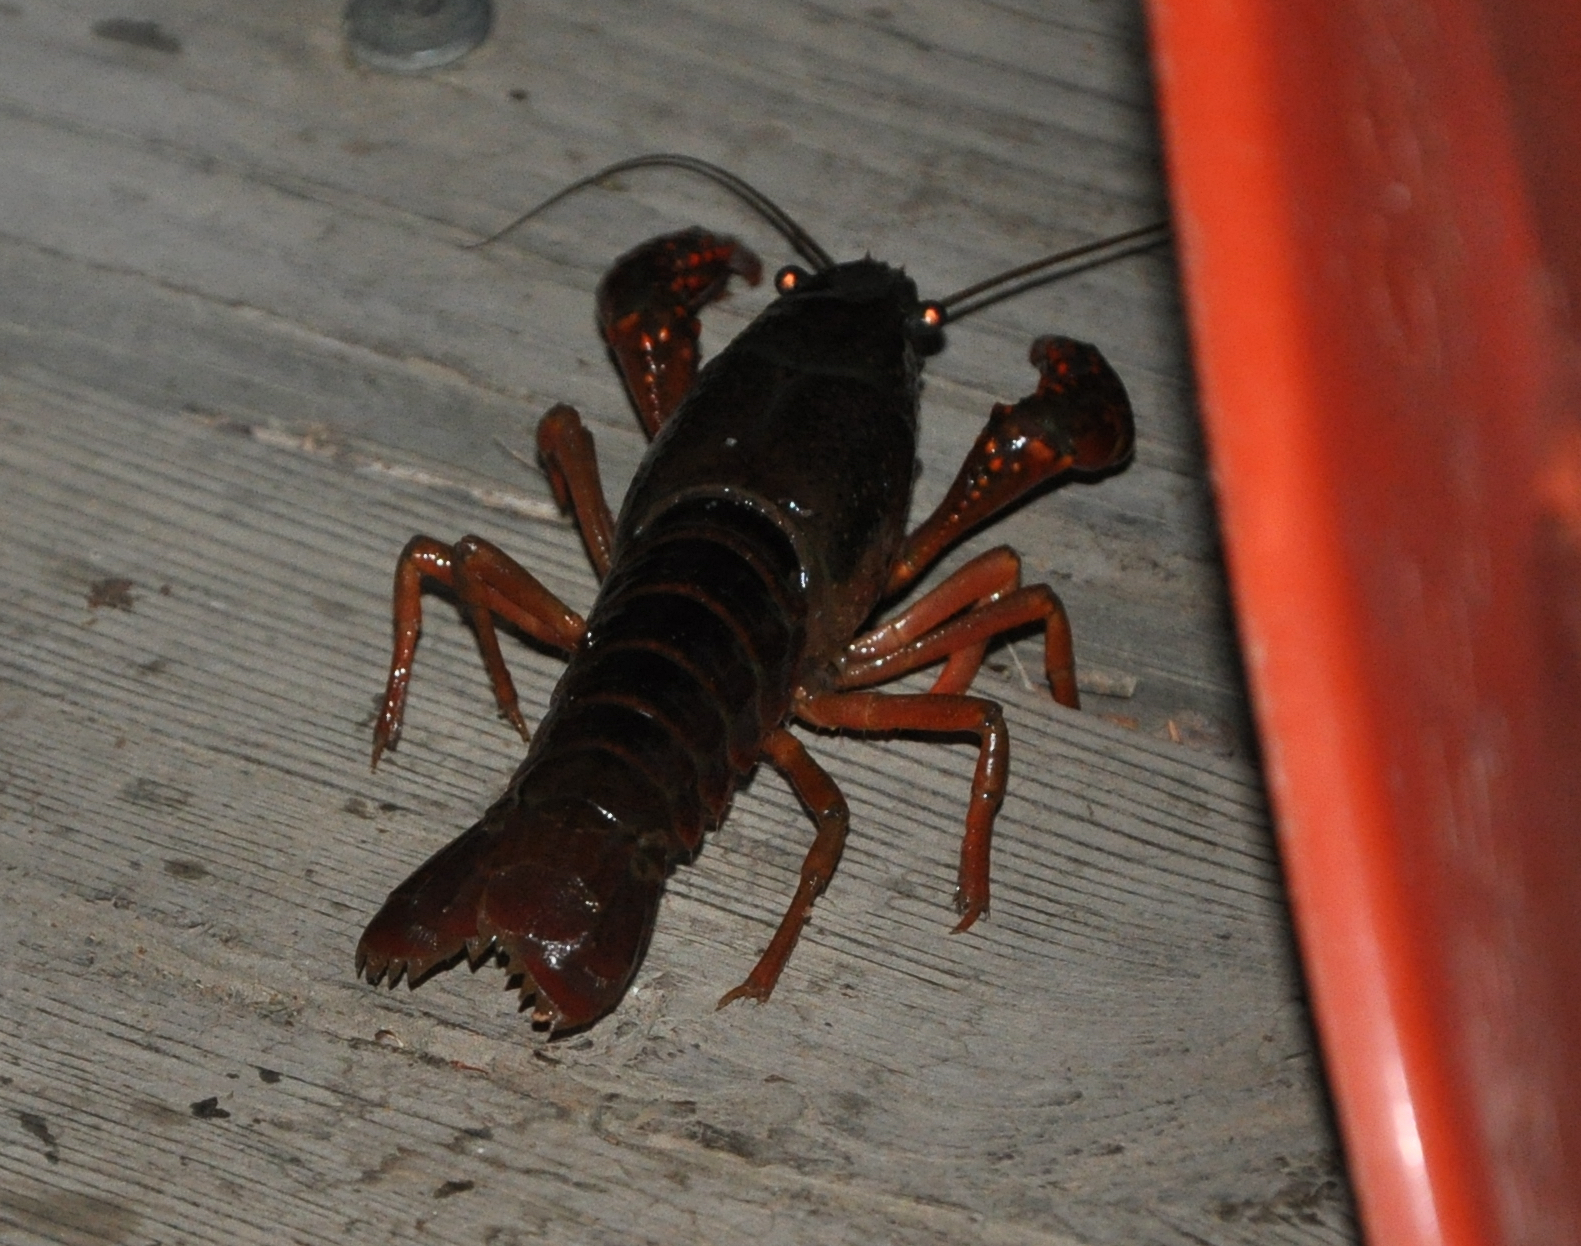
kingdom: Animalia
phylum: Arthropoda
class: Malacostraca
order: Decapoda
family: Cambaridae
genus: Procambarus
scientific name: Procambarus clarkii
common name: Red swamp crayfish
